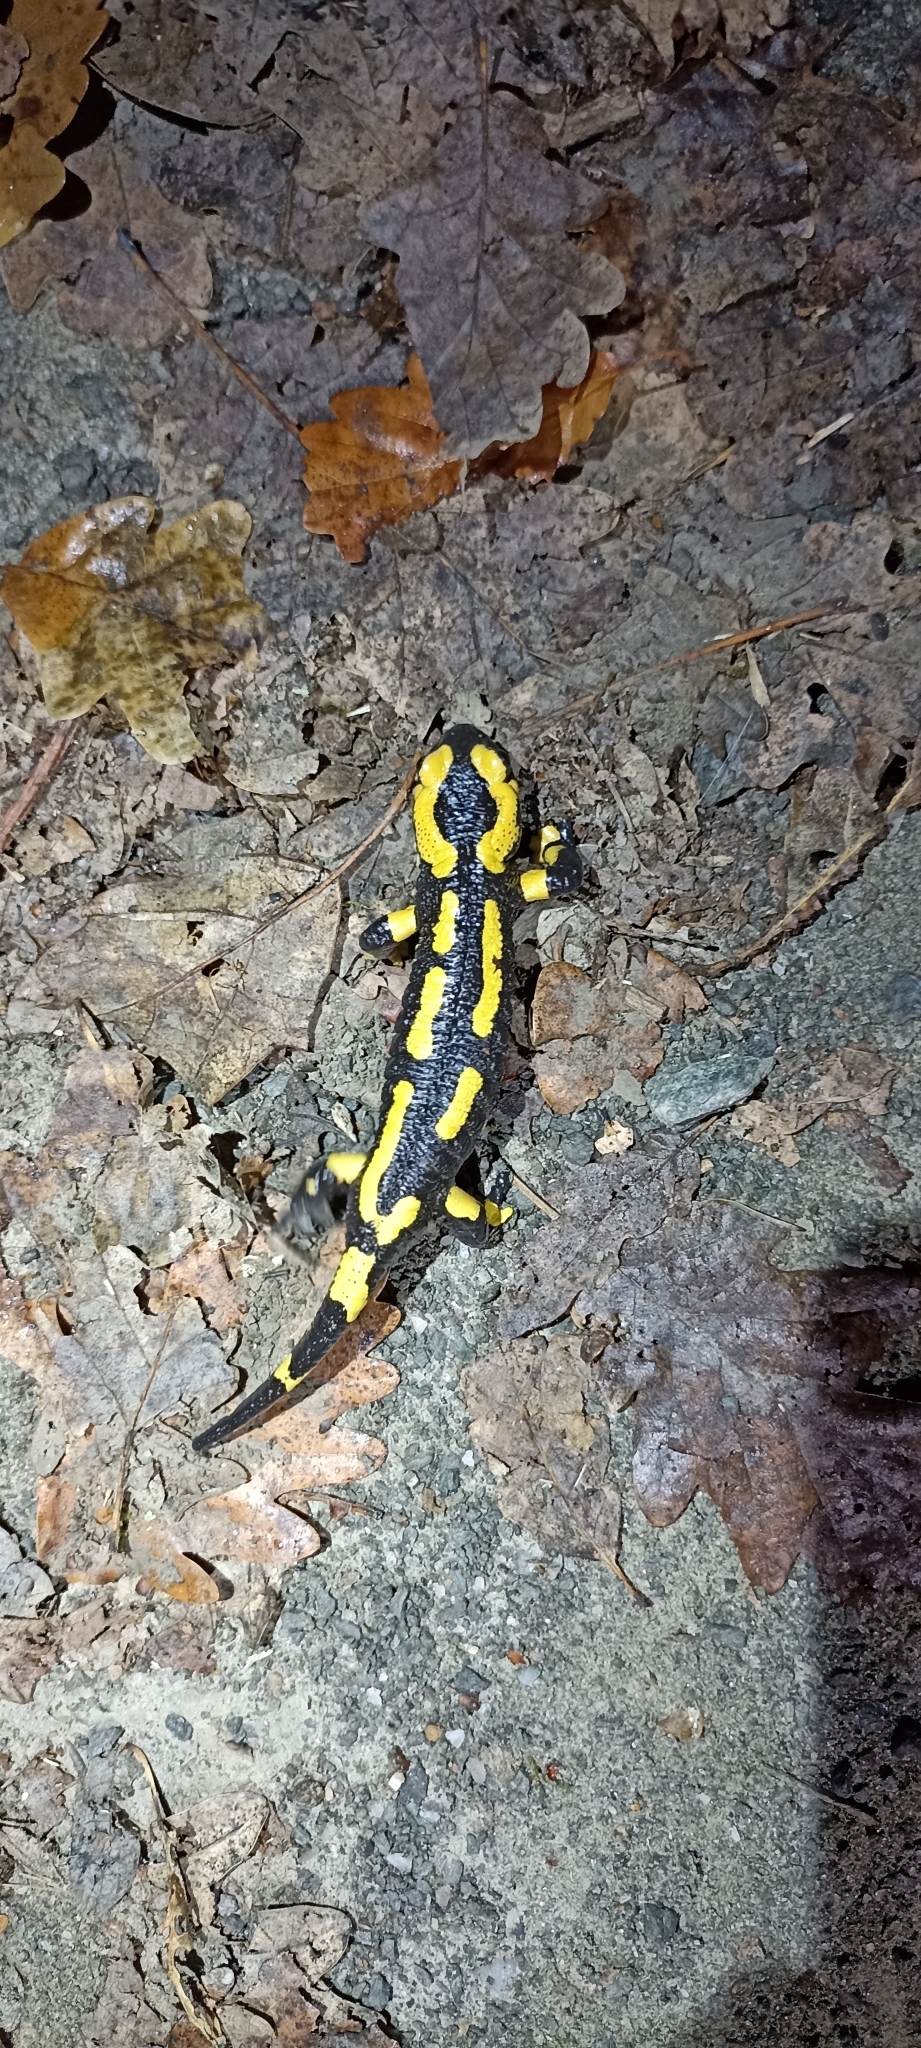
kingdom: Animalia
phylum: Chordata
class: Amphibia
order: Caudata
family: Salamandridae
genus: Salamandra
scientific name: Salamandra salamandra
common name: Fire salamander
